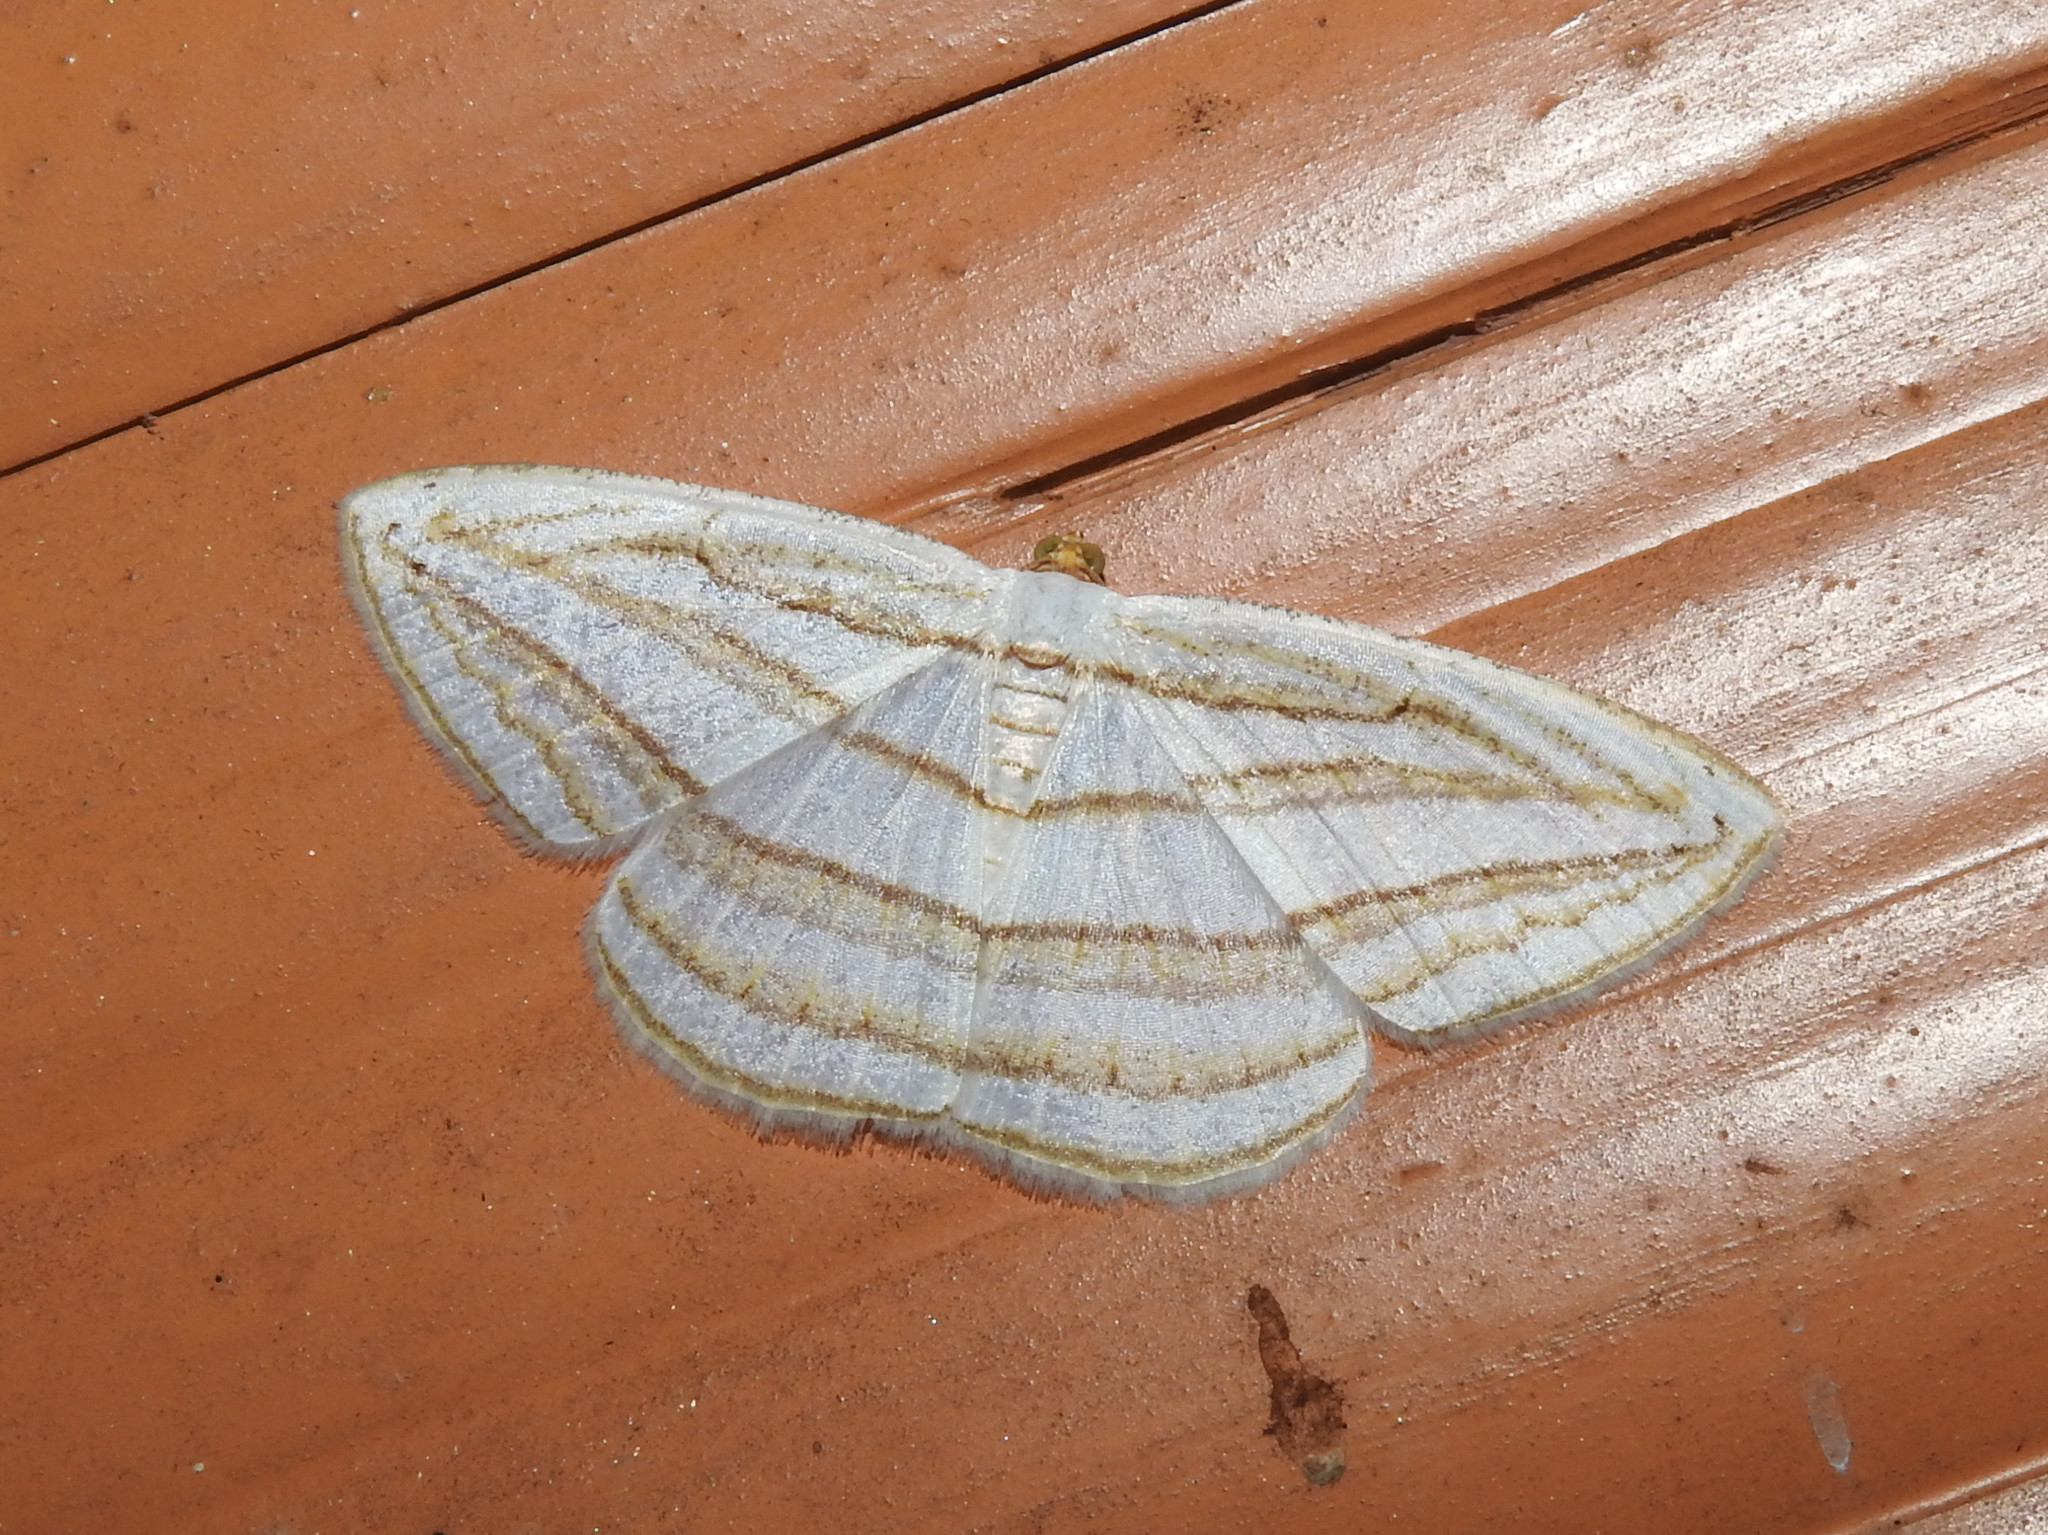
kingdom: Animalia
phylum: Arthropoda
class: Insecta
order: Lepidoptera
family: Geometridae
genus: Orthocabera
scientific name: Orthocabera sericea
